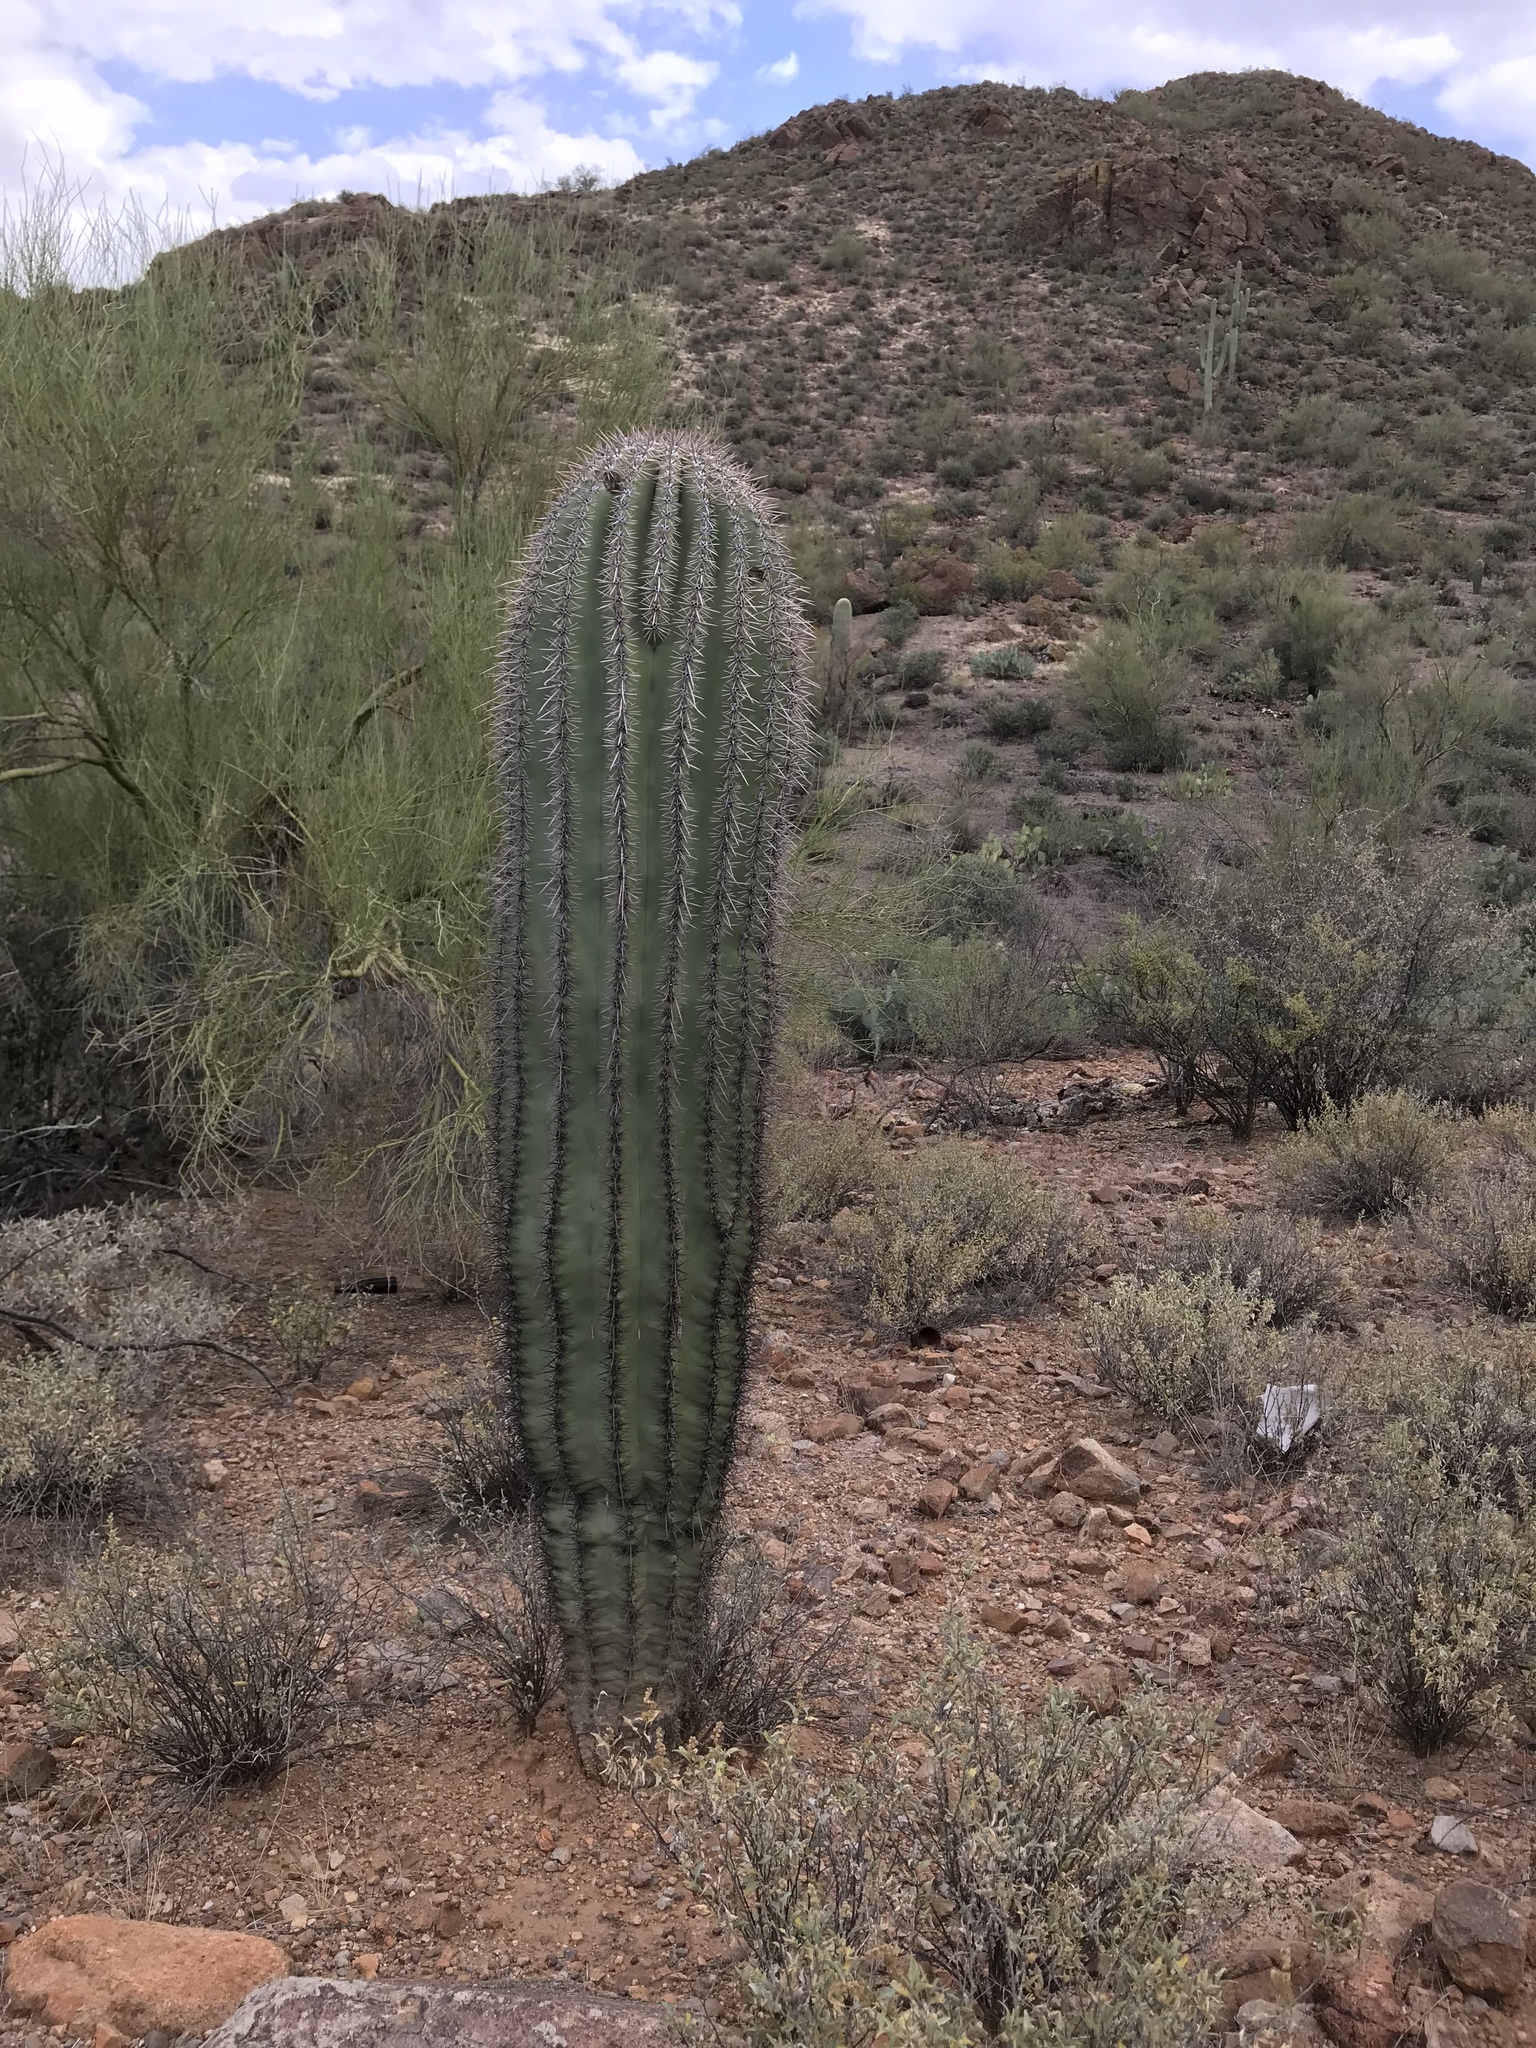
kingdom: Plantae
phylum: Tracheophyta
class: Magnoliopsida
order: Caryophyllales
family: Cactaceae
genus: Carnegiea
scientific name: Carnegiea gigantea
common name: Saguaro
